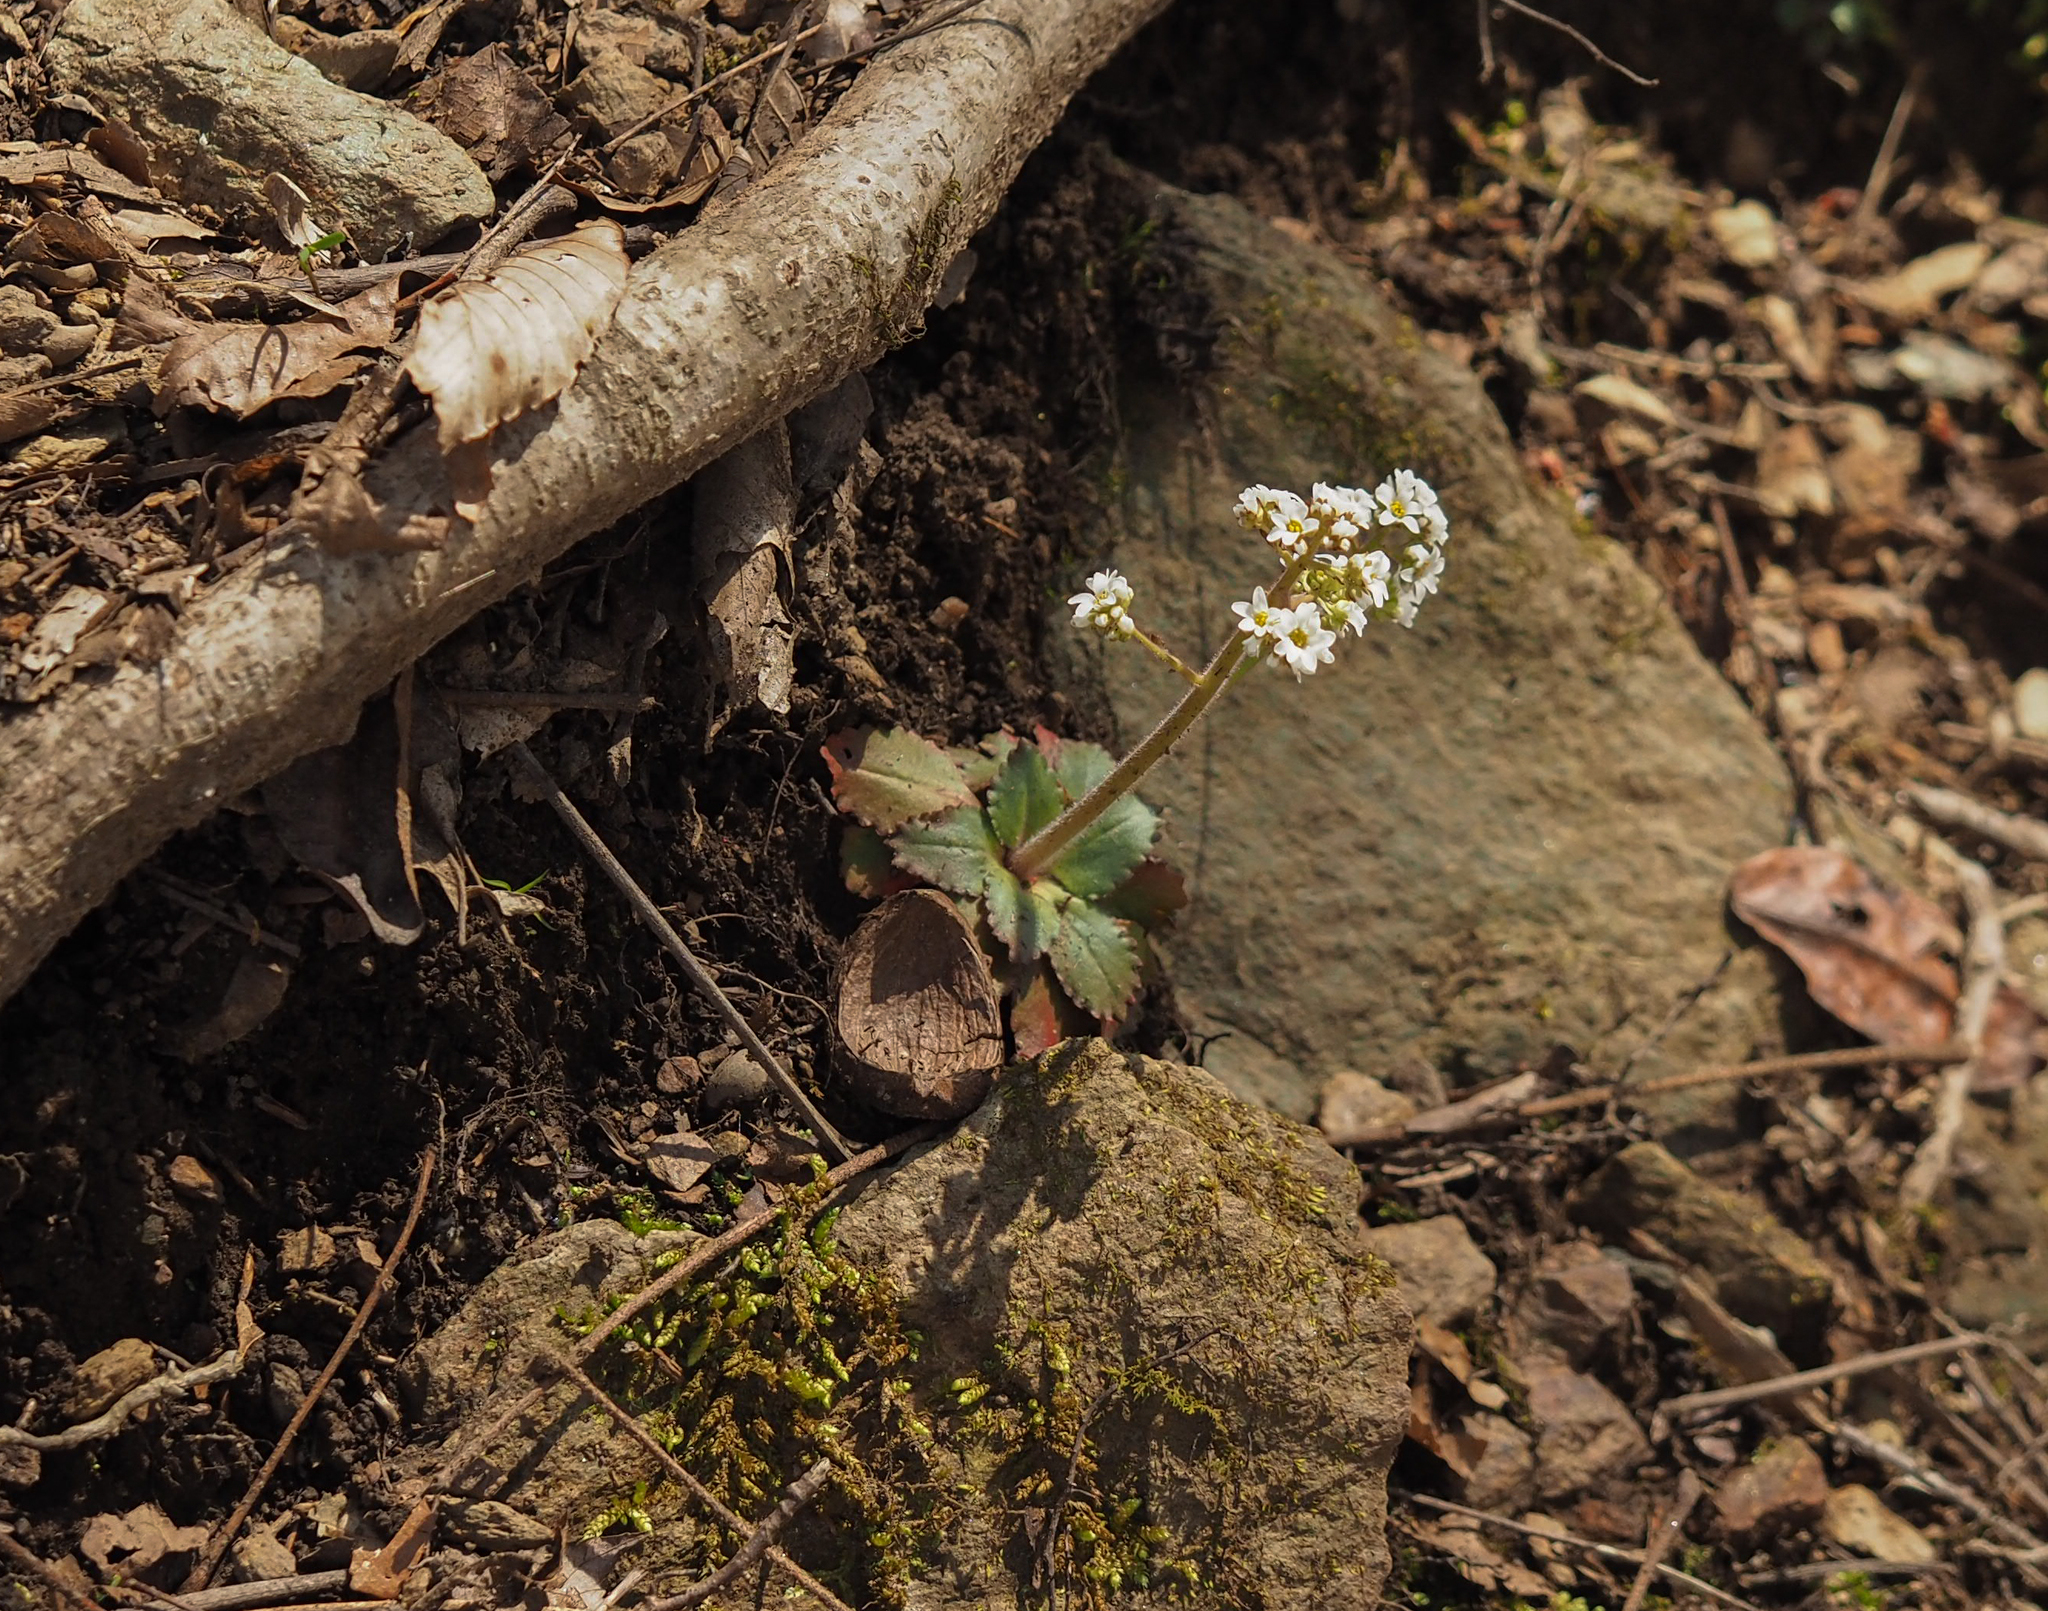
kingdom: Plantae
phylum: Tracheophyta
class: Magnoliopsida
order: Saxifragales
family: Saxifragaceae
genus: Micranthes
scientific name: Micranthes virginiensis
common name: Early saxifrage
